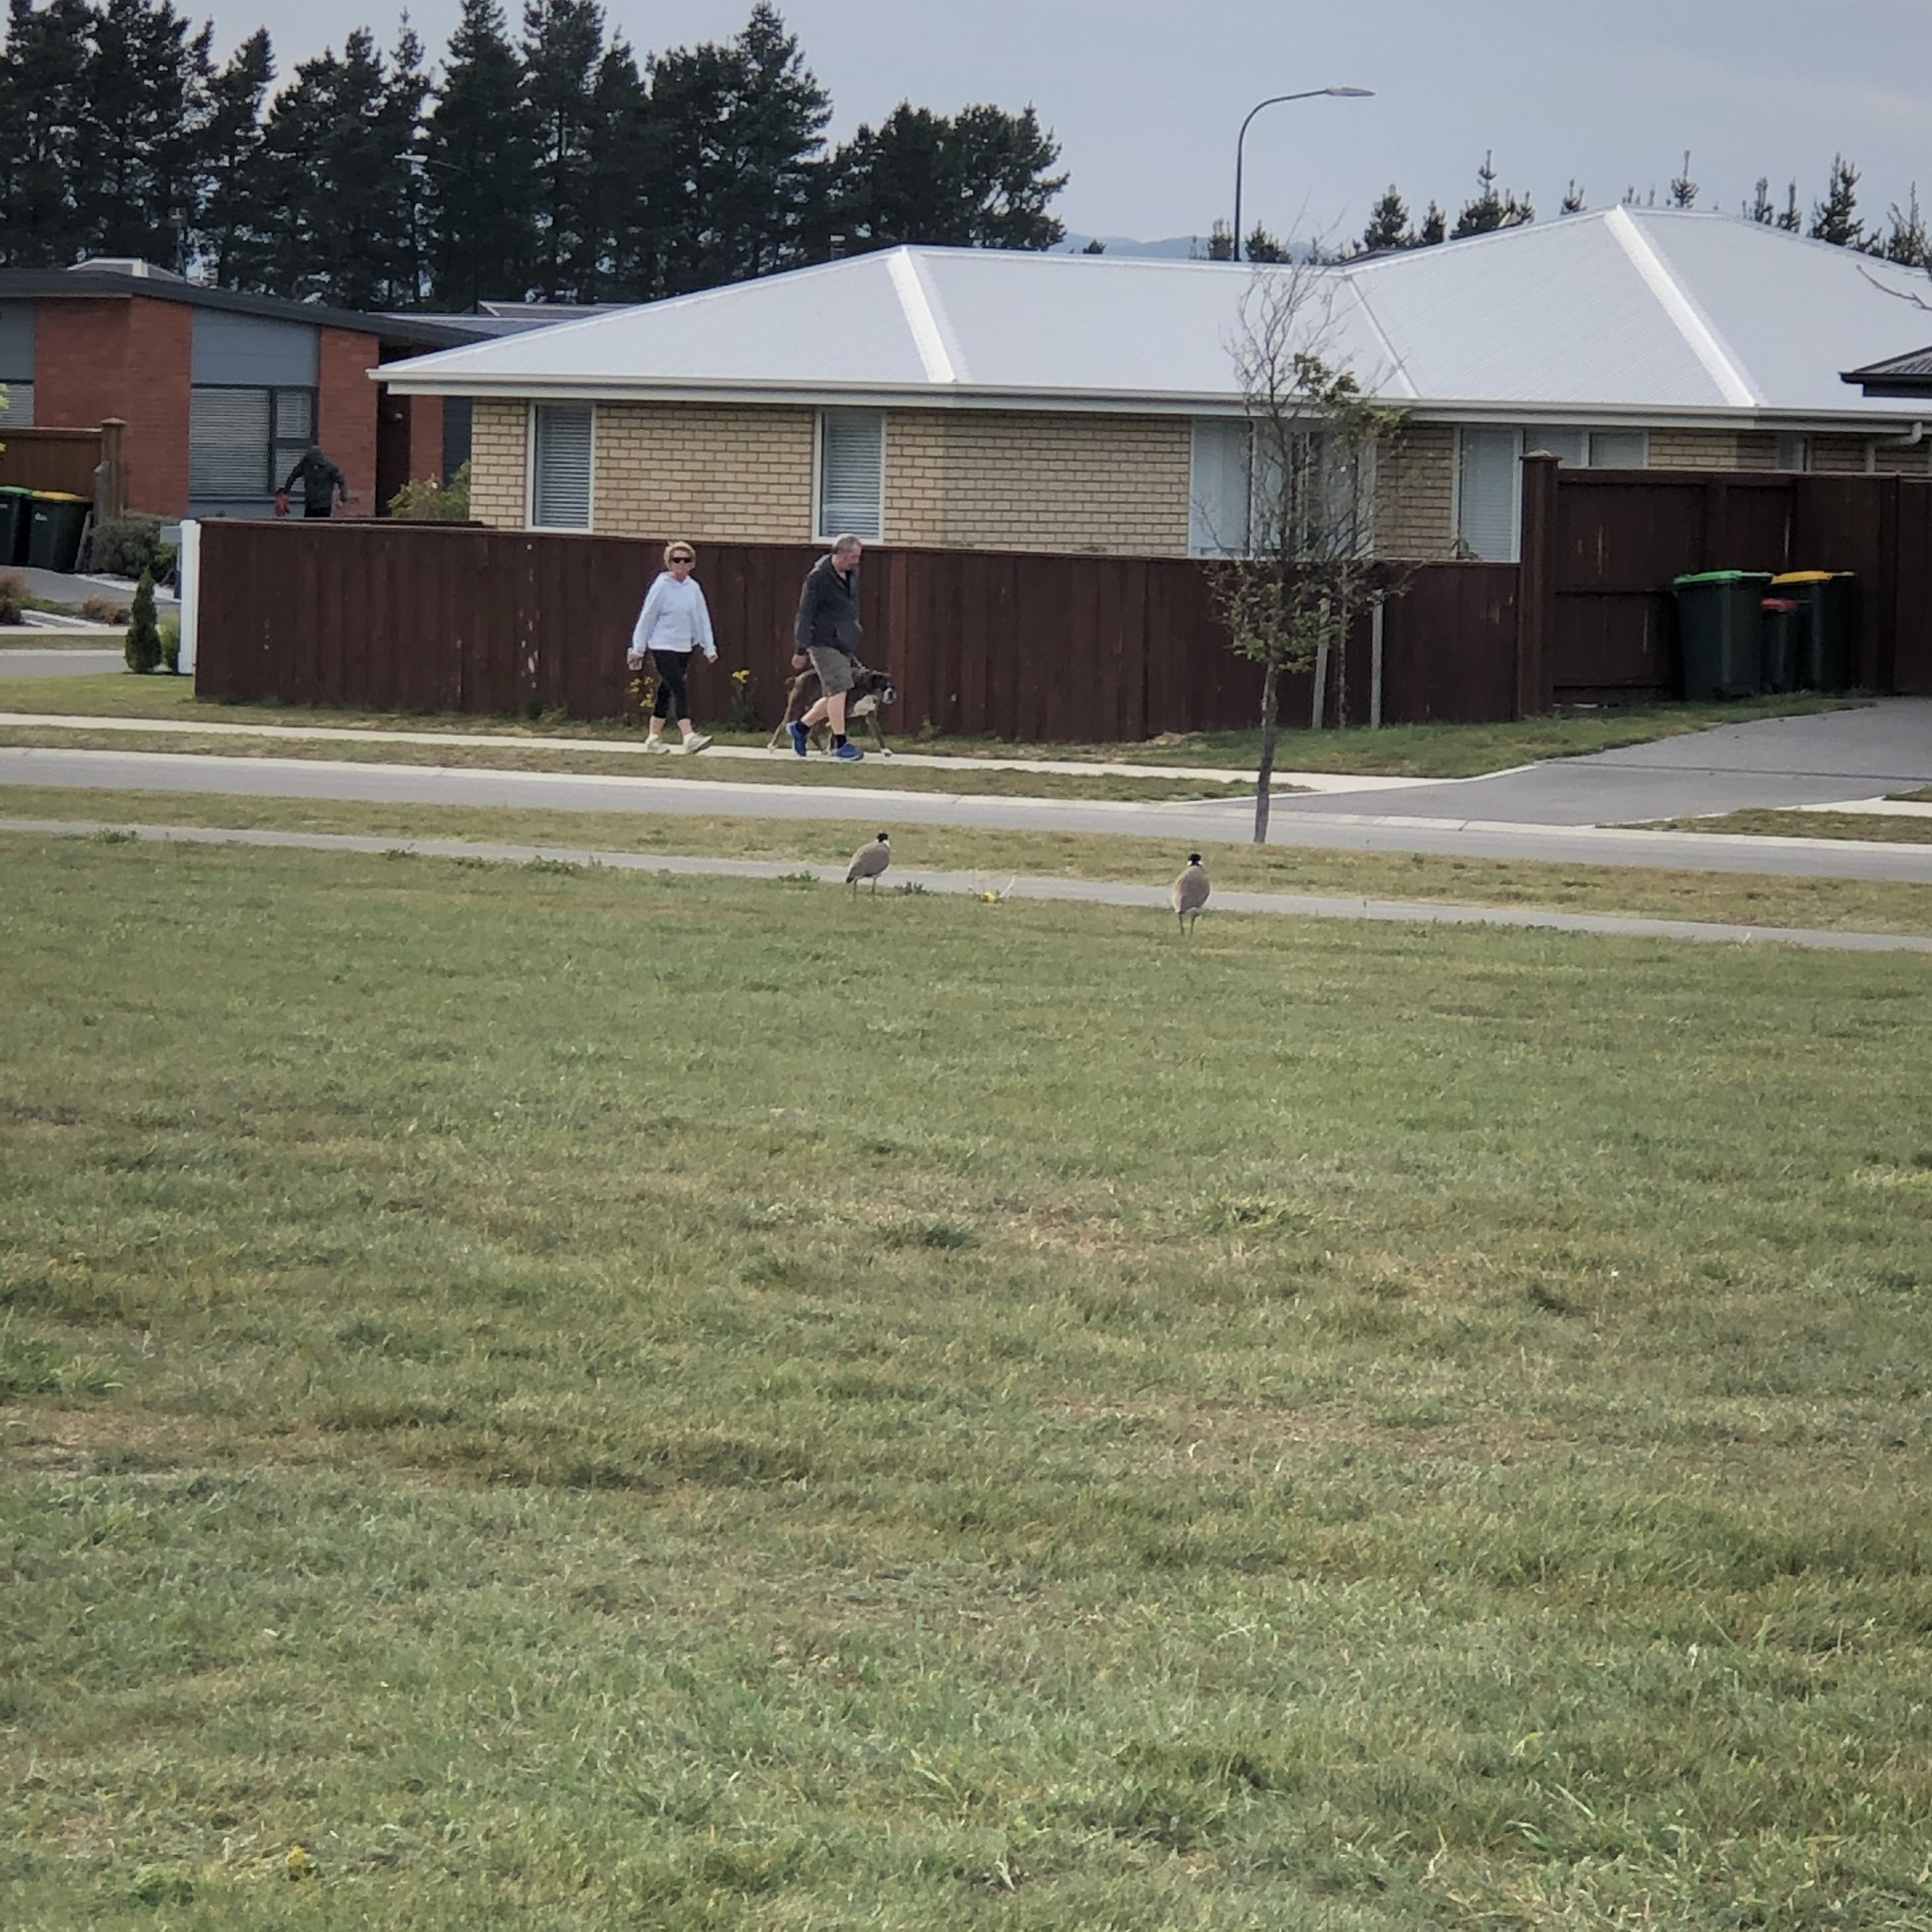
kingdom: Animalia
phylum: Chordata
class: Aves
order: Charadriiformes
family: Charadriidae
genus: Vanellus
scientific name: Vanellus miles
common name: Masked lapwing
